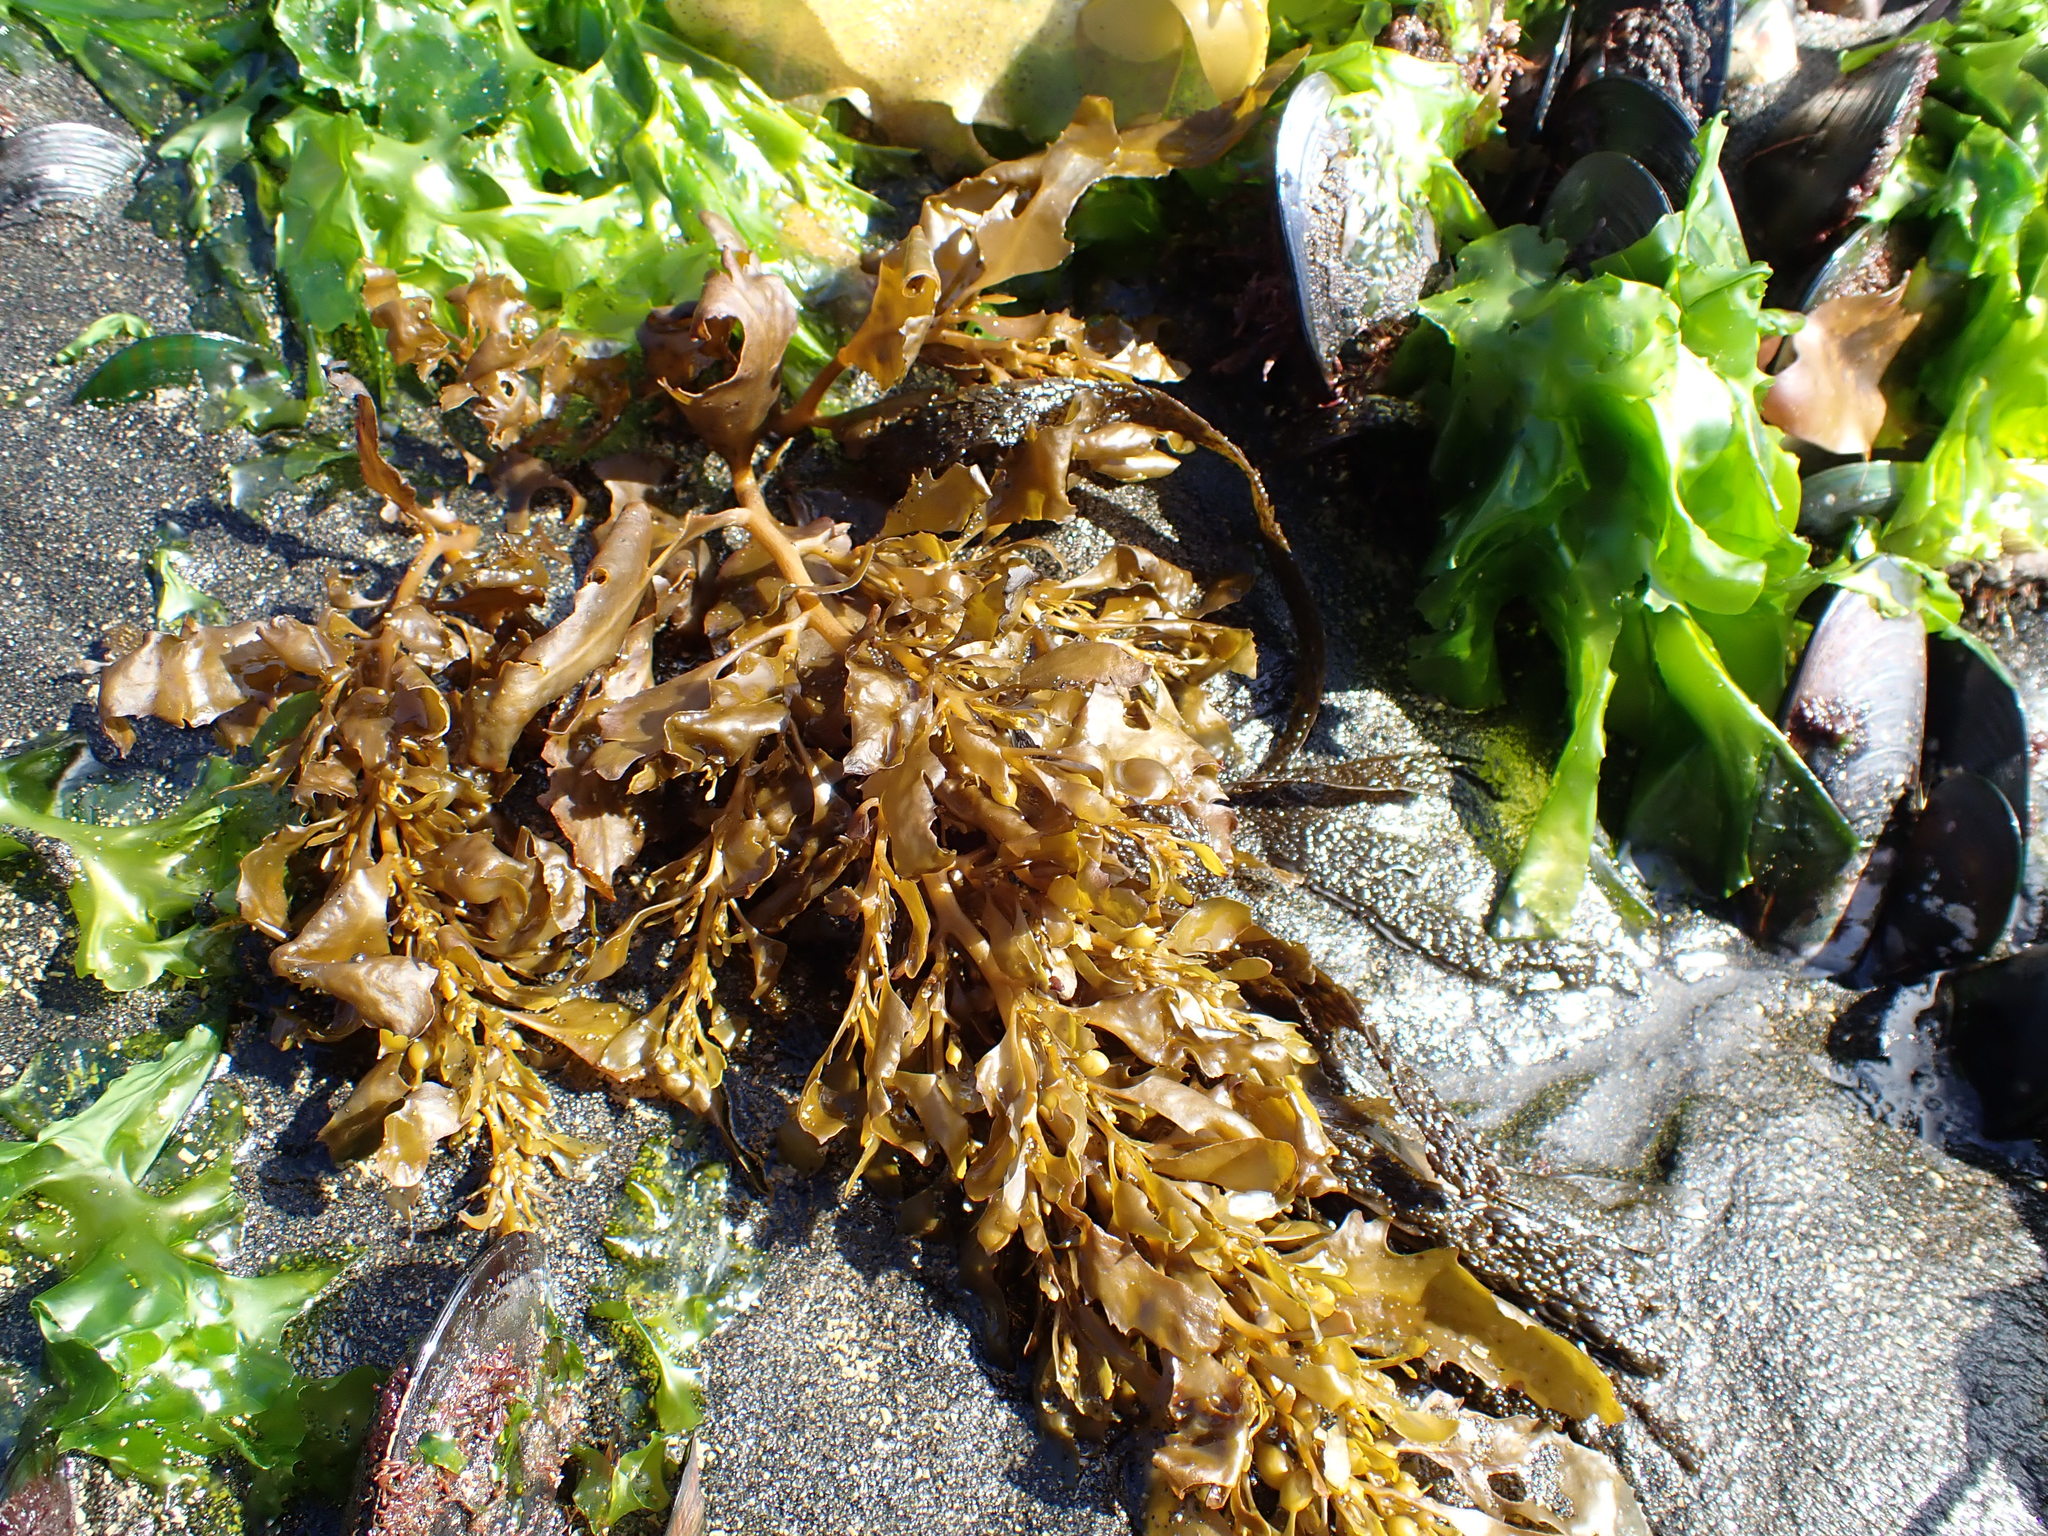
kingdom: Chromista
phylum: Ochrophyta
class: Phaeophyceae
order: Fucales
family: Sargassaceae
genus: Sargassum
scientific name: Sargassum sinclairii
